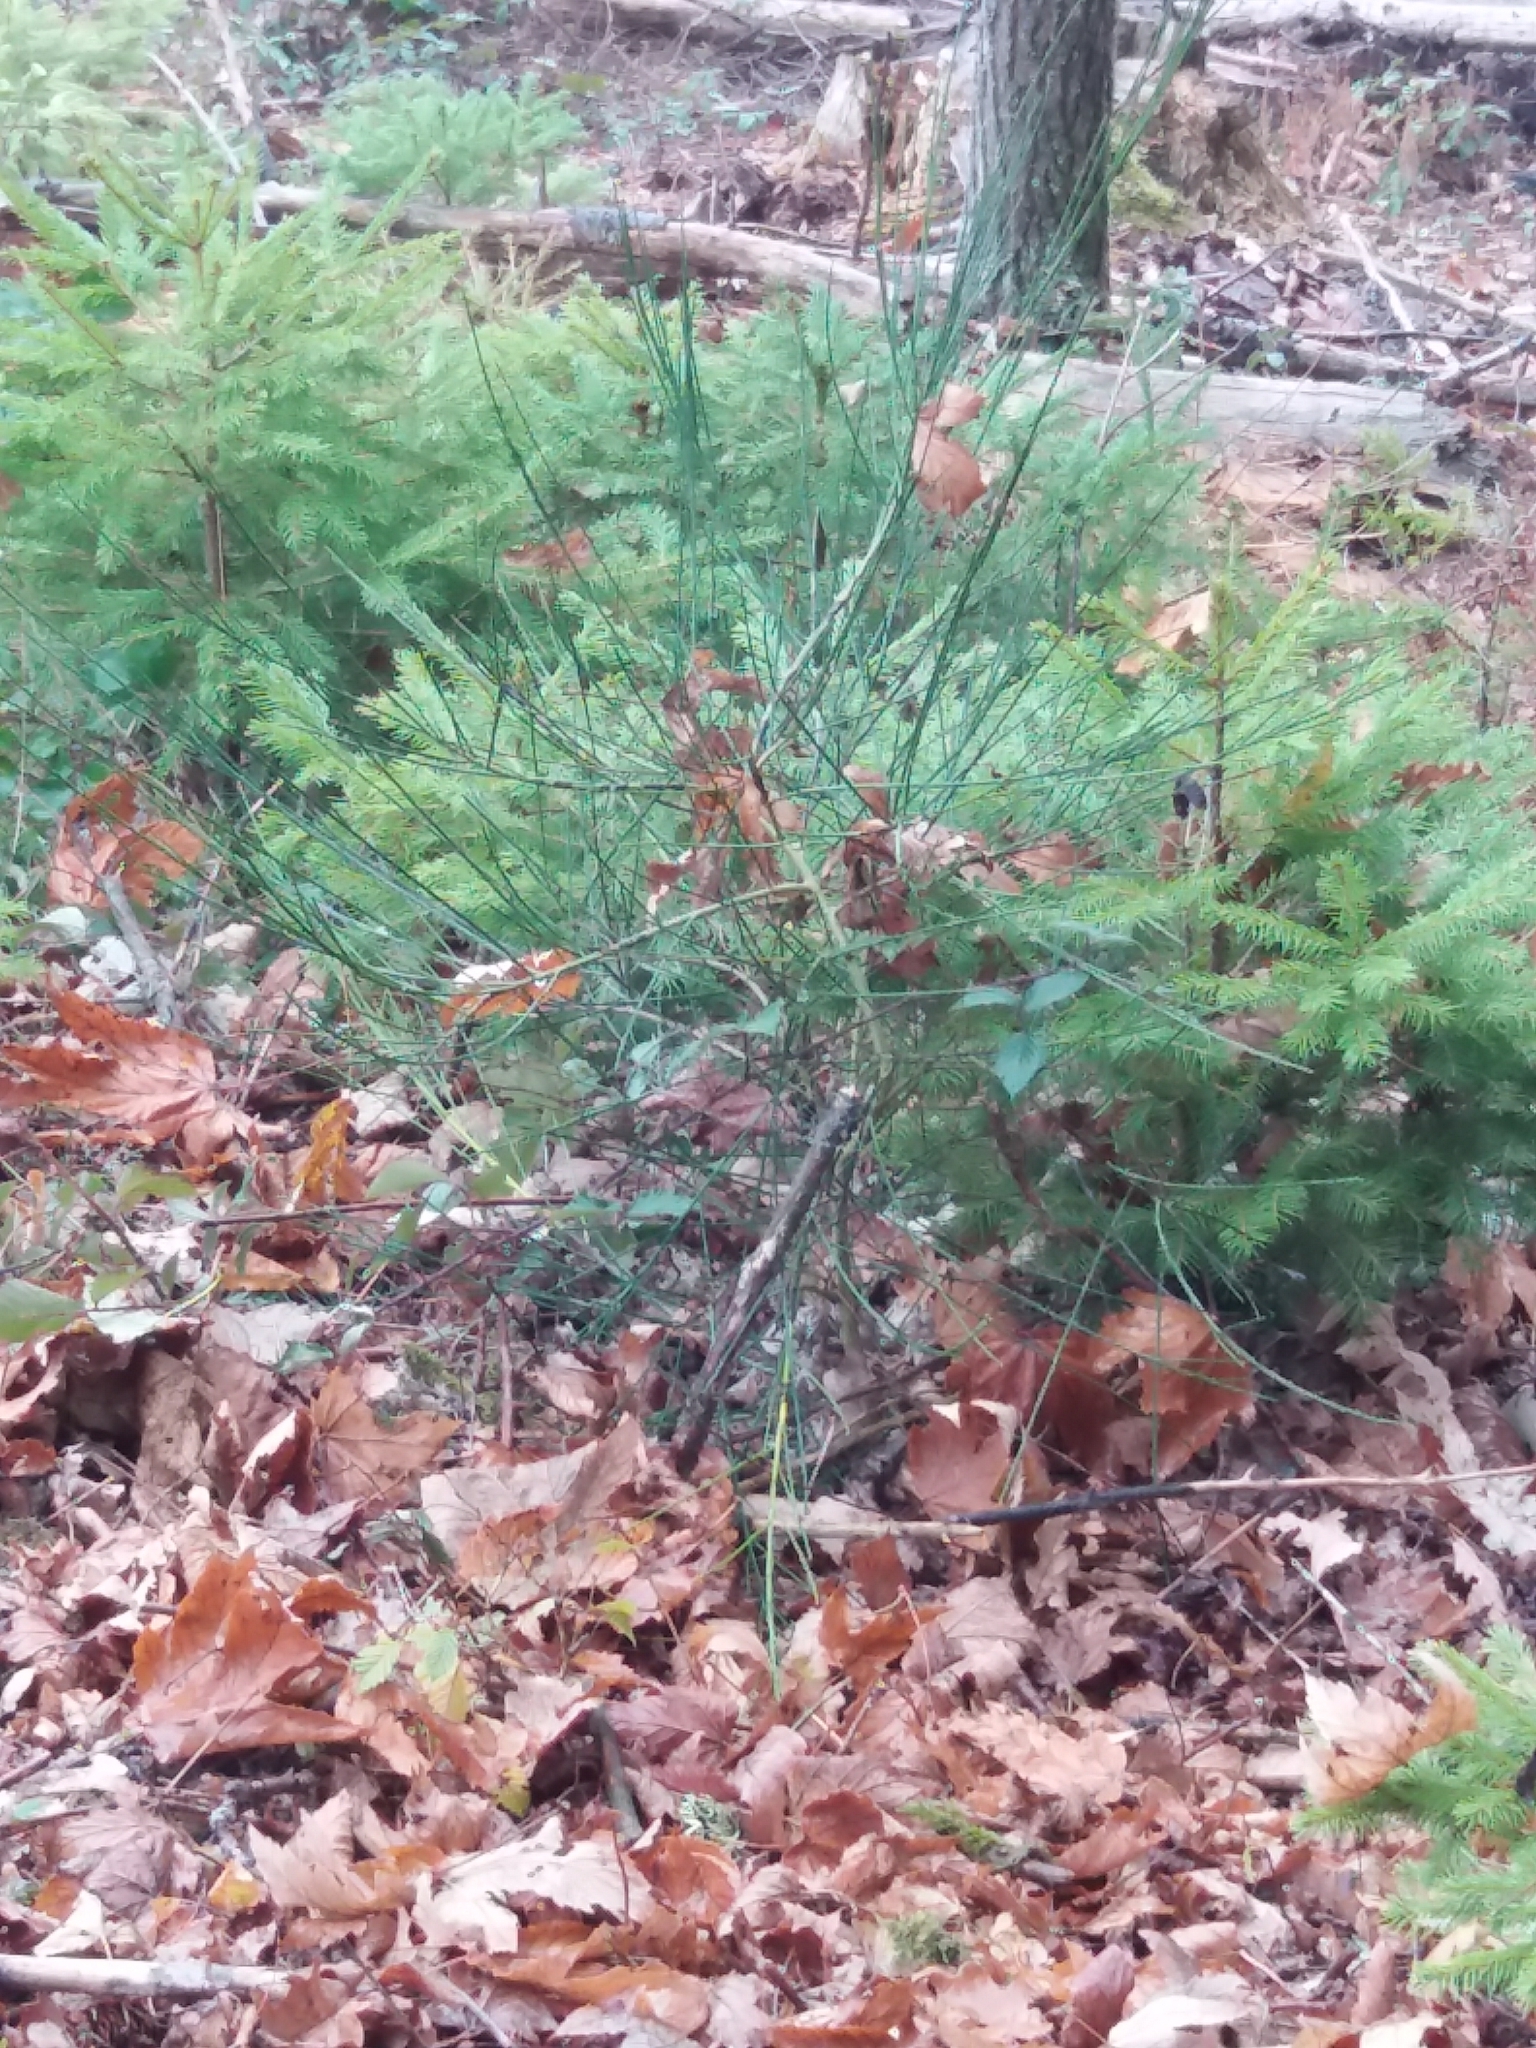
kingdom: Plantae
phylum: Tracheophyta
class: Magnoliopsida
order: Fabales
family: Fabaceae
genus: Cytisus
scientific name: Cytisus scoparius
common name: Scotch broom
